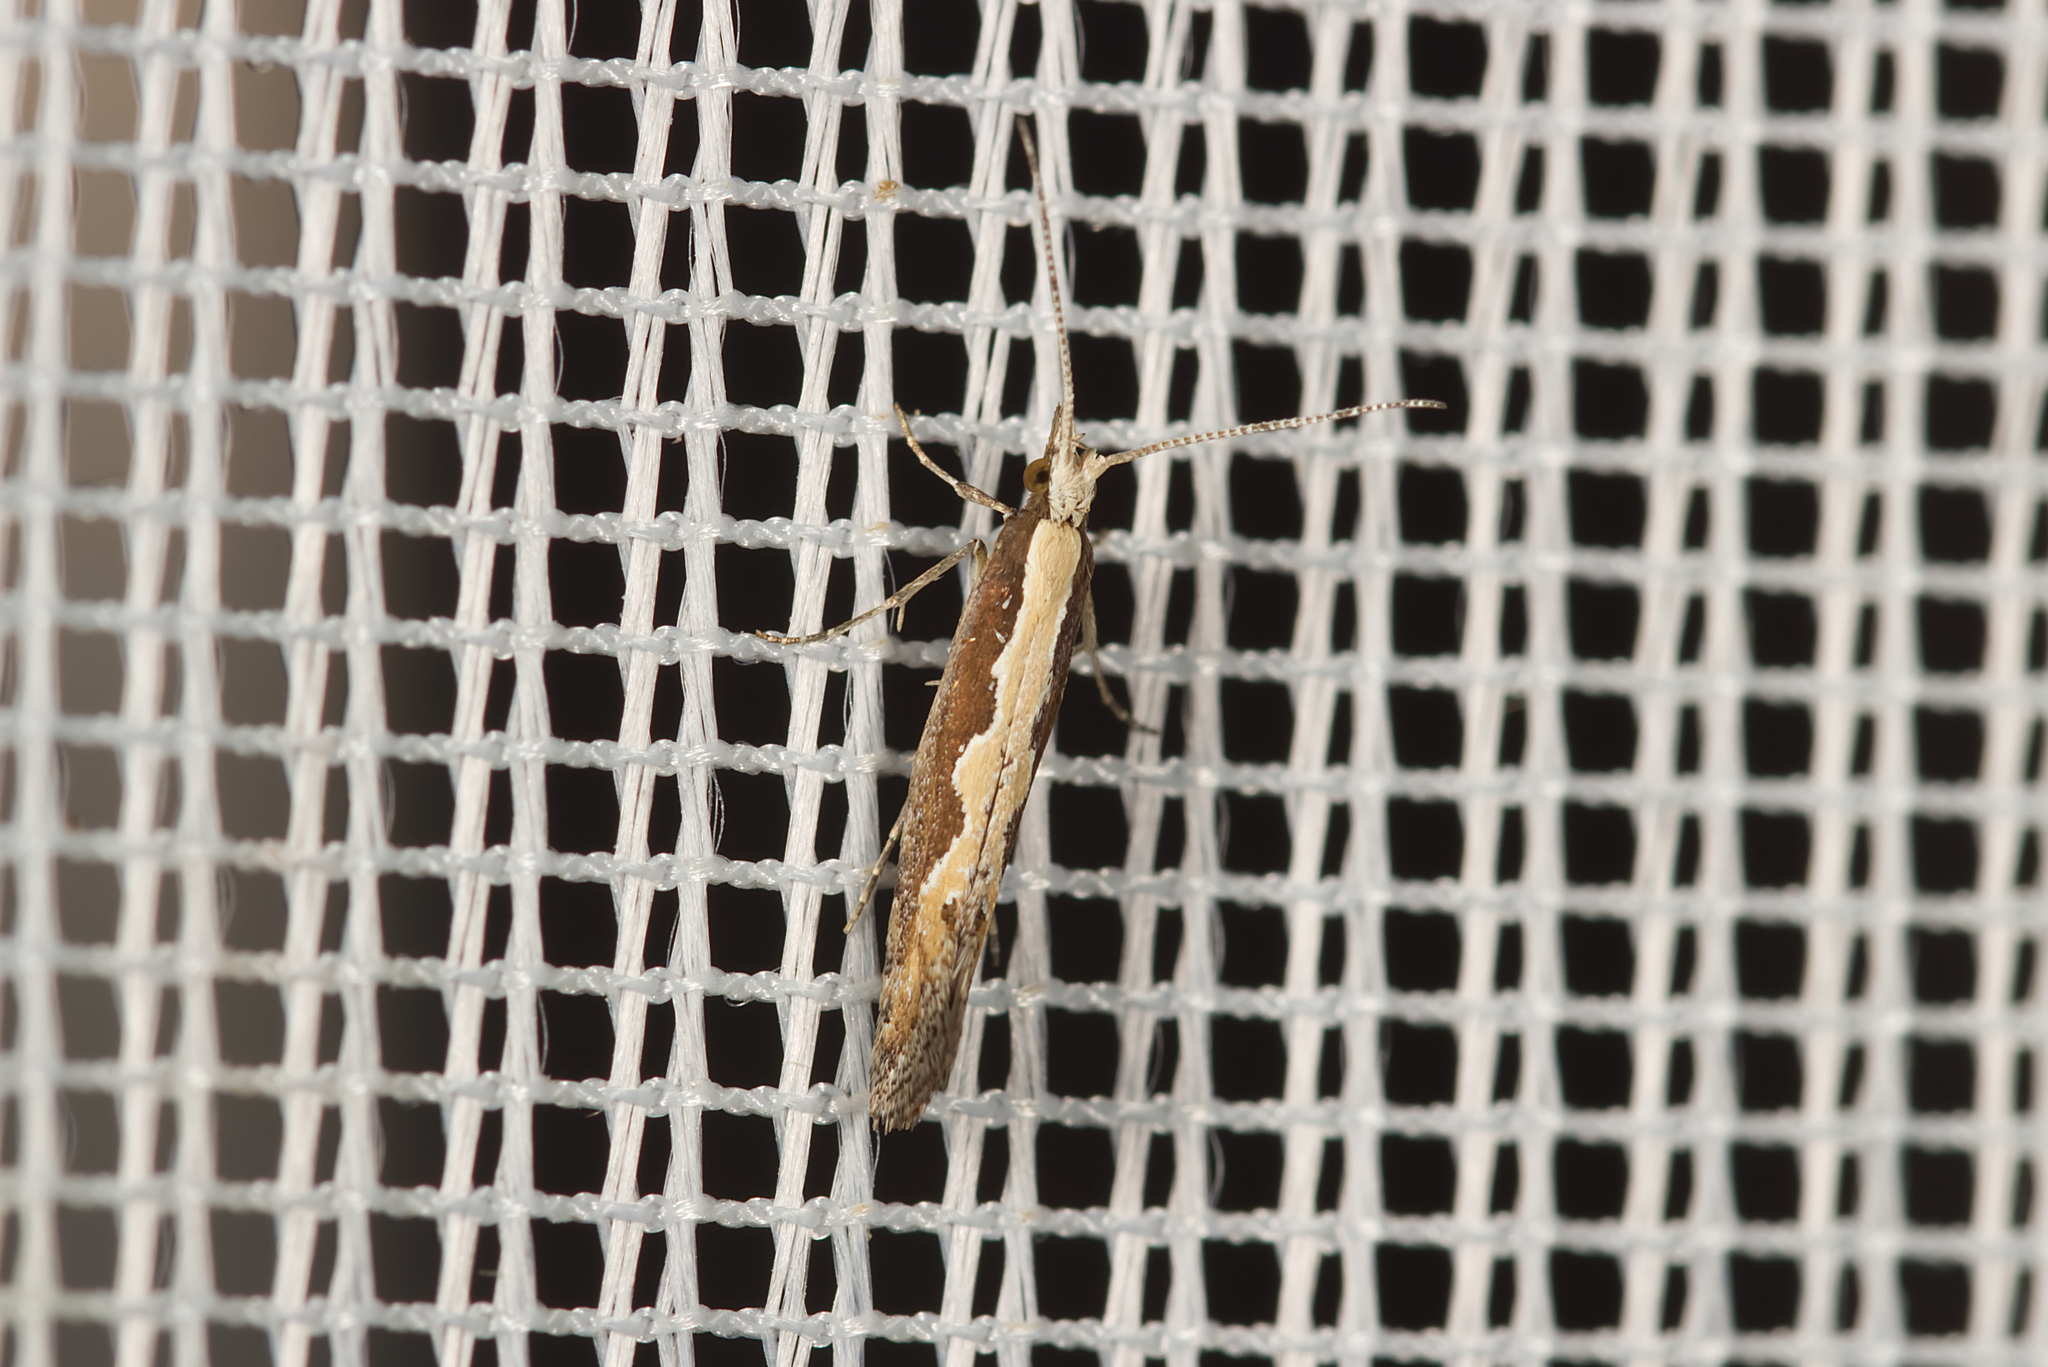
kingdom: Animalia
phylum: Arthropoda
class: Insecta
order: Lepidoptera
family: Plutellidae
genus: Plutella
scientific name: Plutella xylostella
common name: Diamond-back moth
